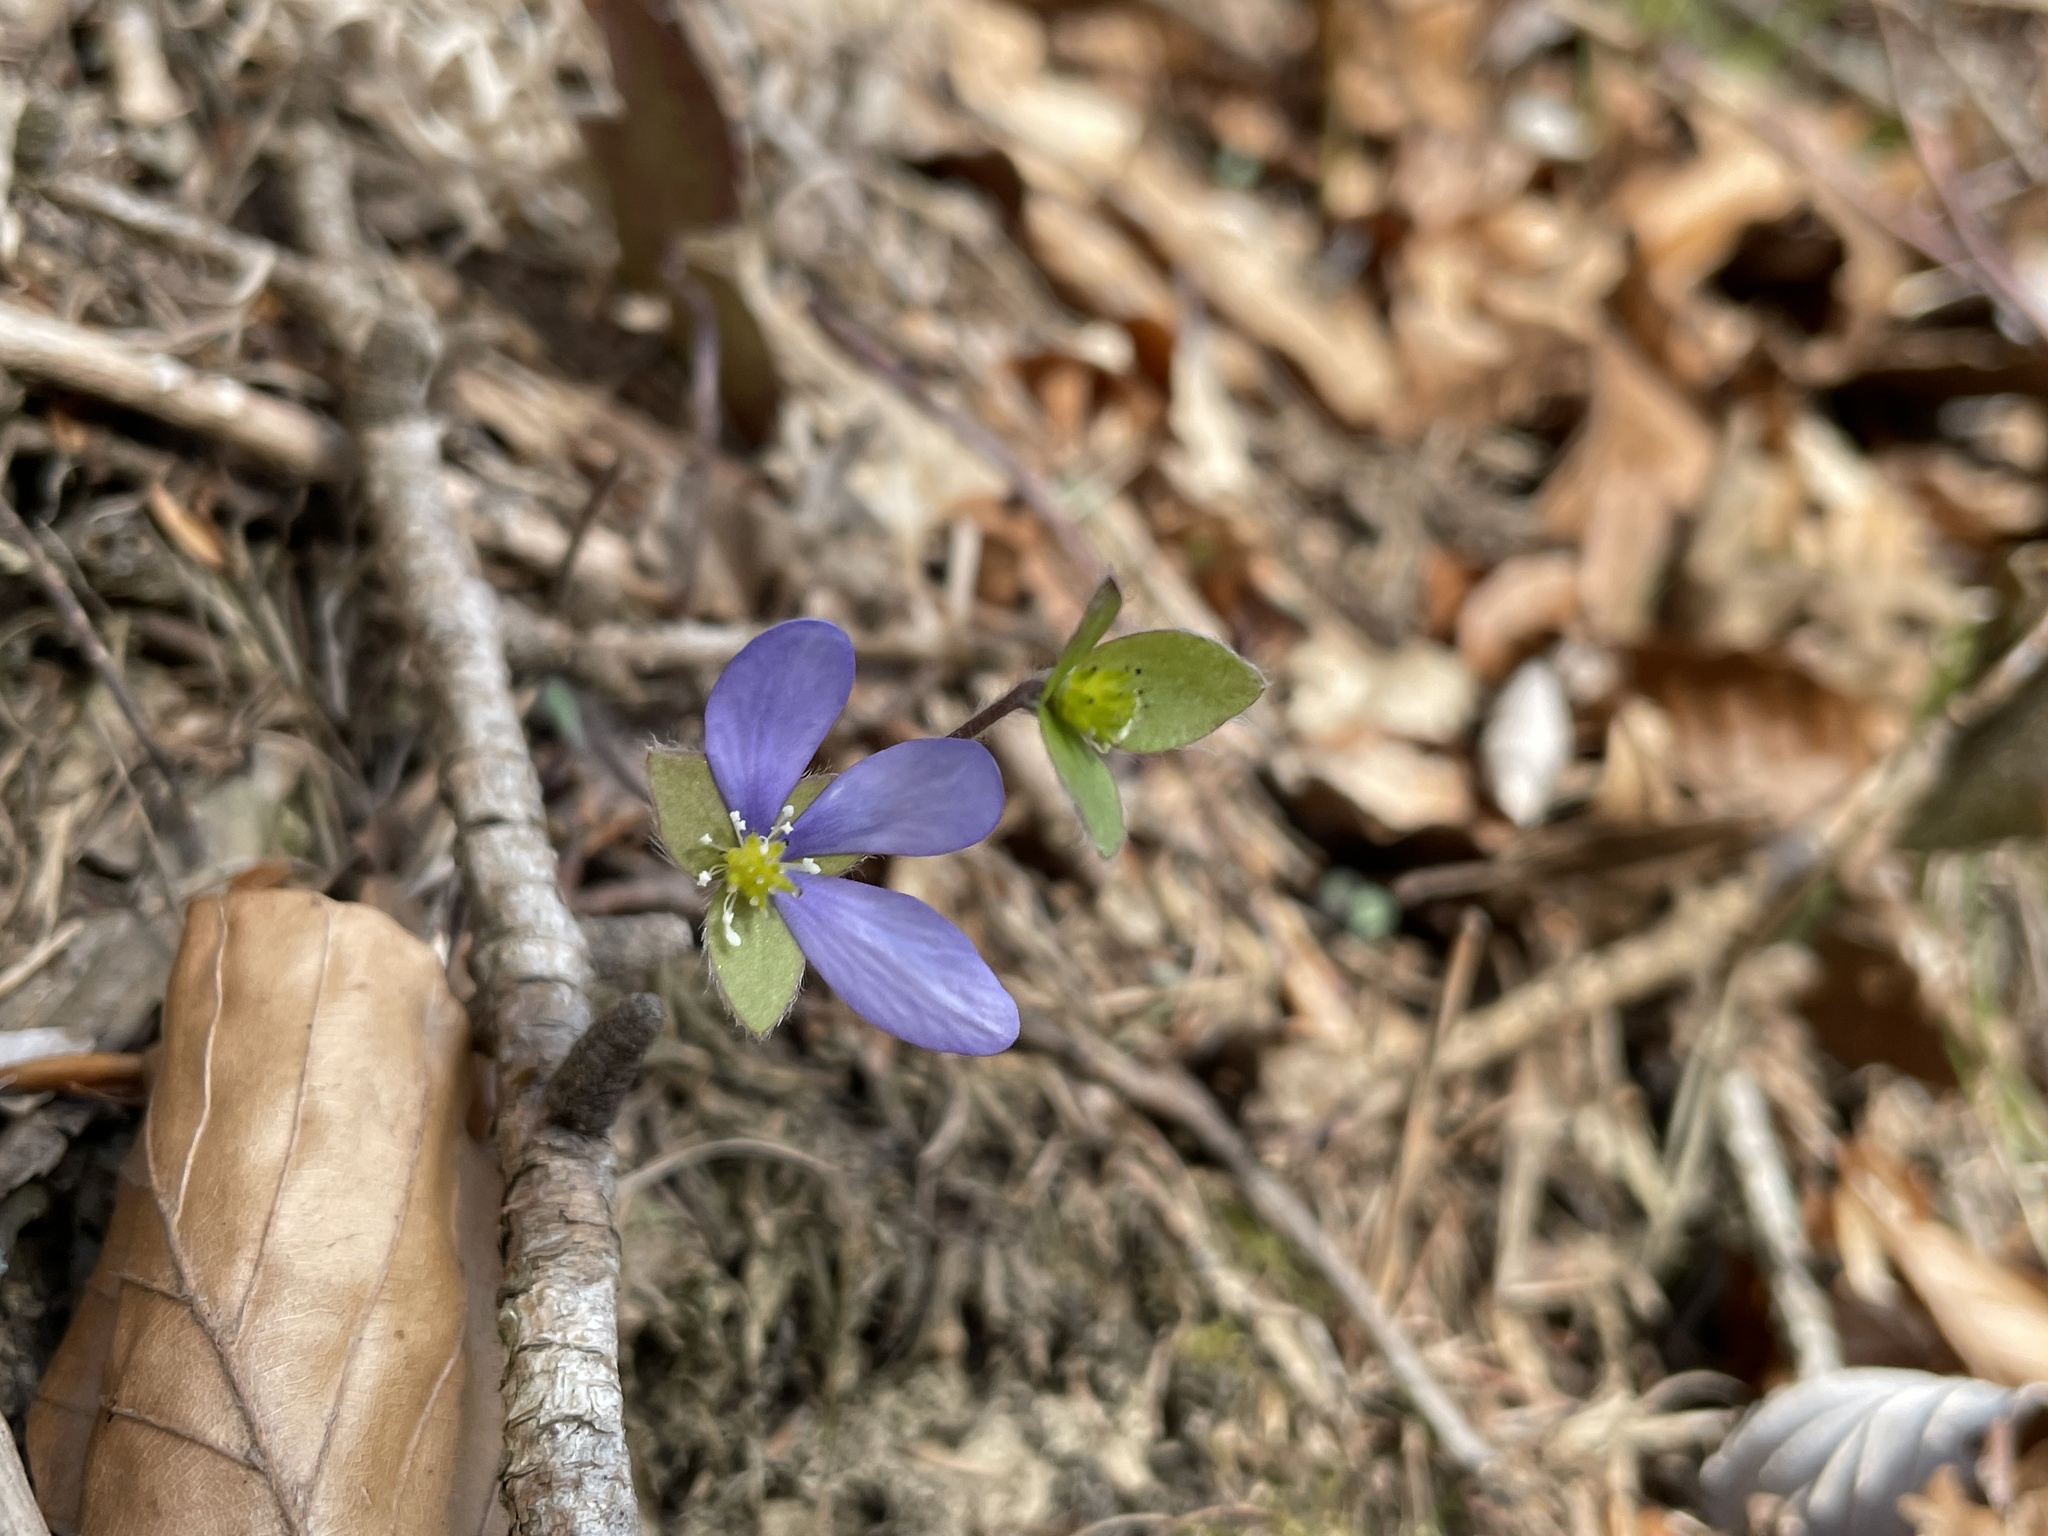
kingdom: Plantae
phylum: Tracheophyta
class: Magnoliopsida
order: Ranunculales
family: Ranunculaceae
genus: Hepatica
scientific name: Hepatica nobilis
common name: Liverleaf
